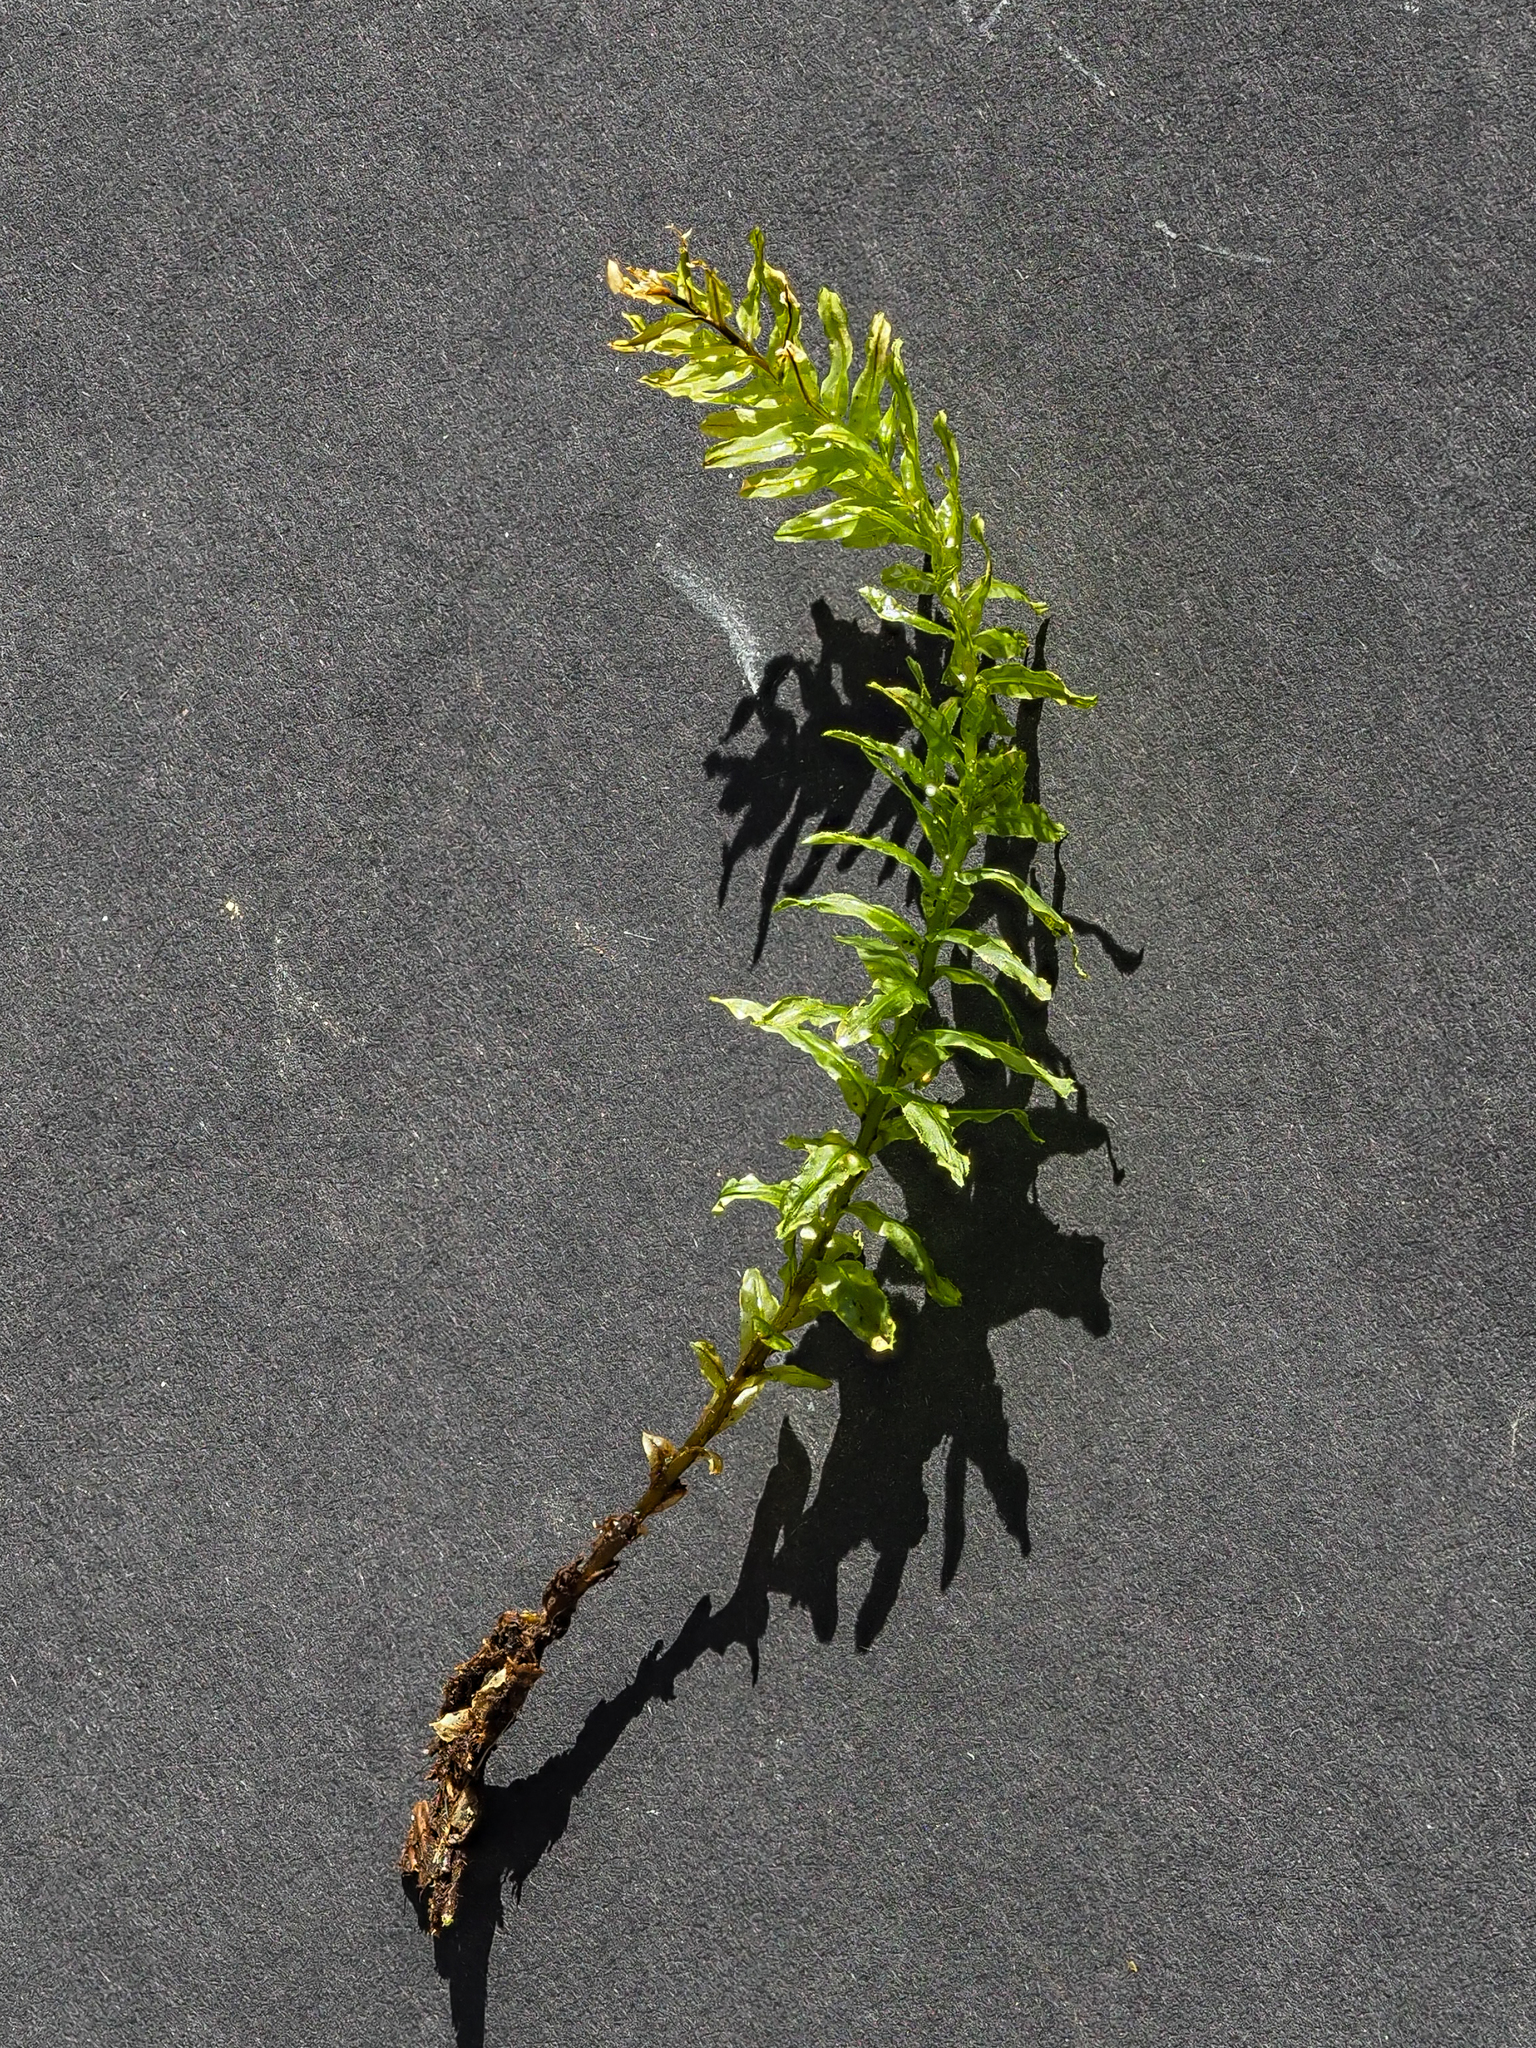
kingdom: Plantae
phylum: Bryophyta
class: Bryopsida
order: Bryales
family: Mniaceae
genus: Plagiomnium
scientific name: Plagiomnium undulatum
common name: Hart's-tongue thyme-moss
